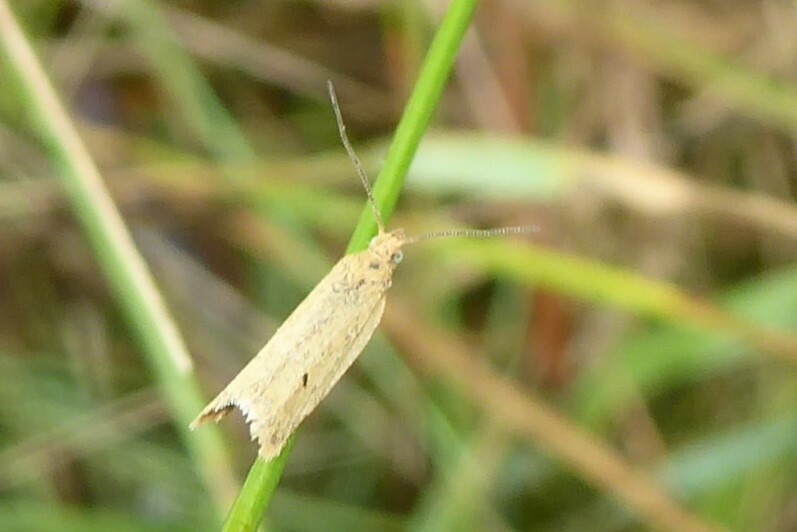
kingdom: Animalia
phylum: Arthropoda
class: Insecta
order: Lepidoptera
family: Tortricidae
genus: Epichorista
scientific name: Epichorista siriana
